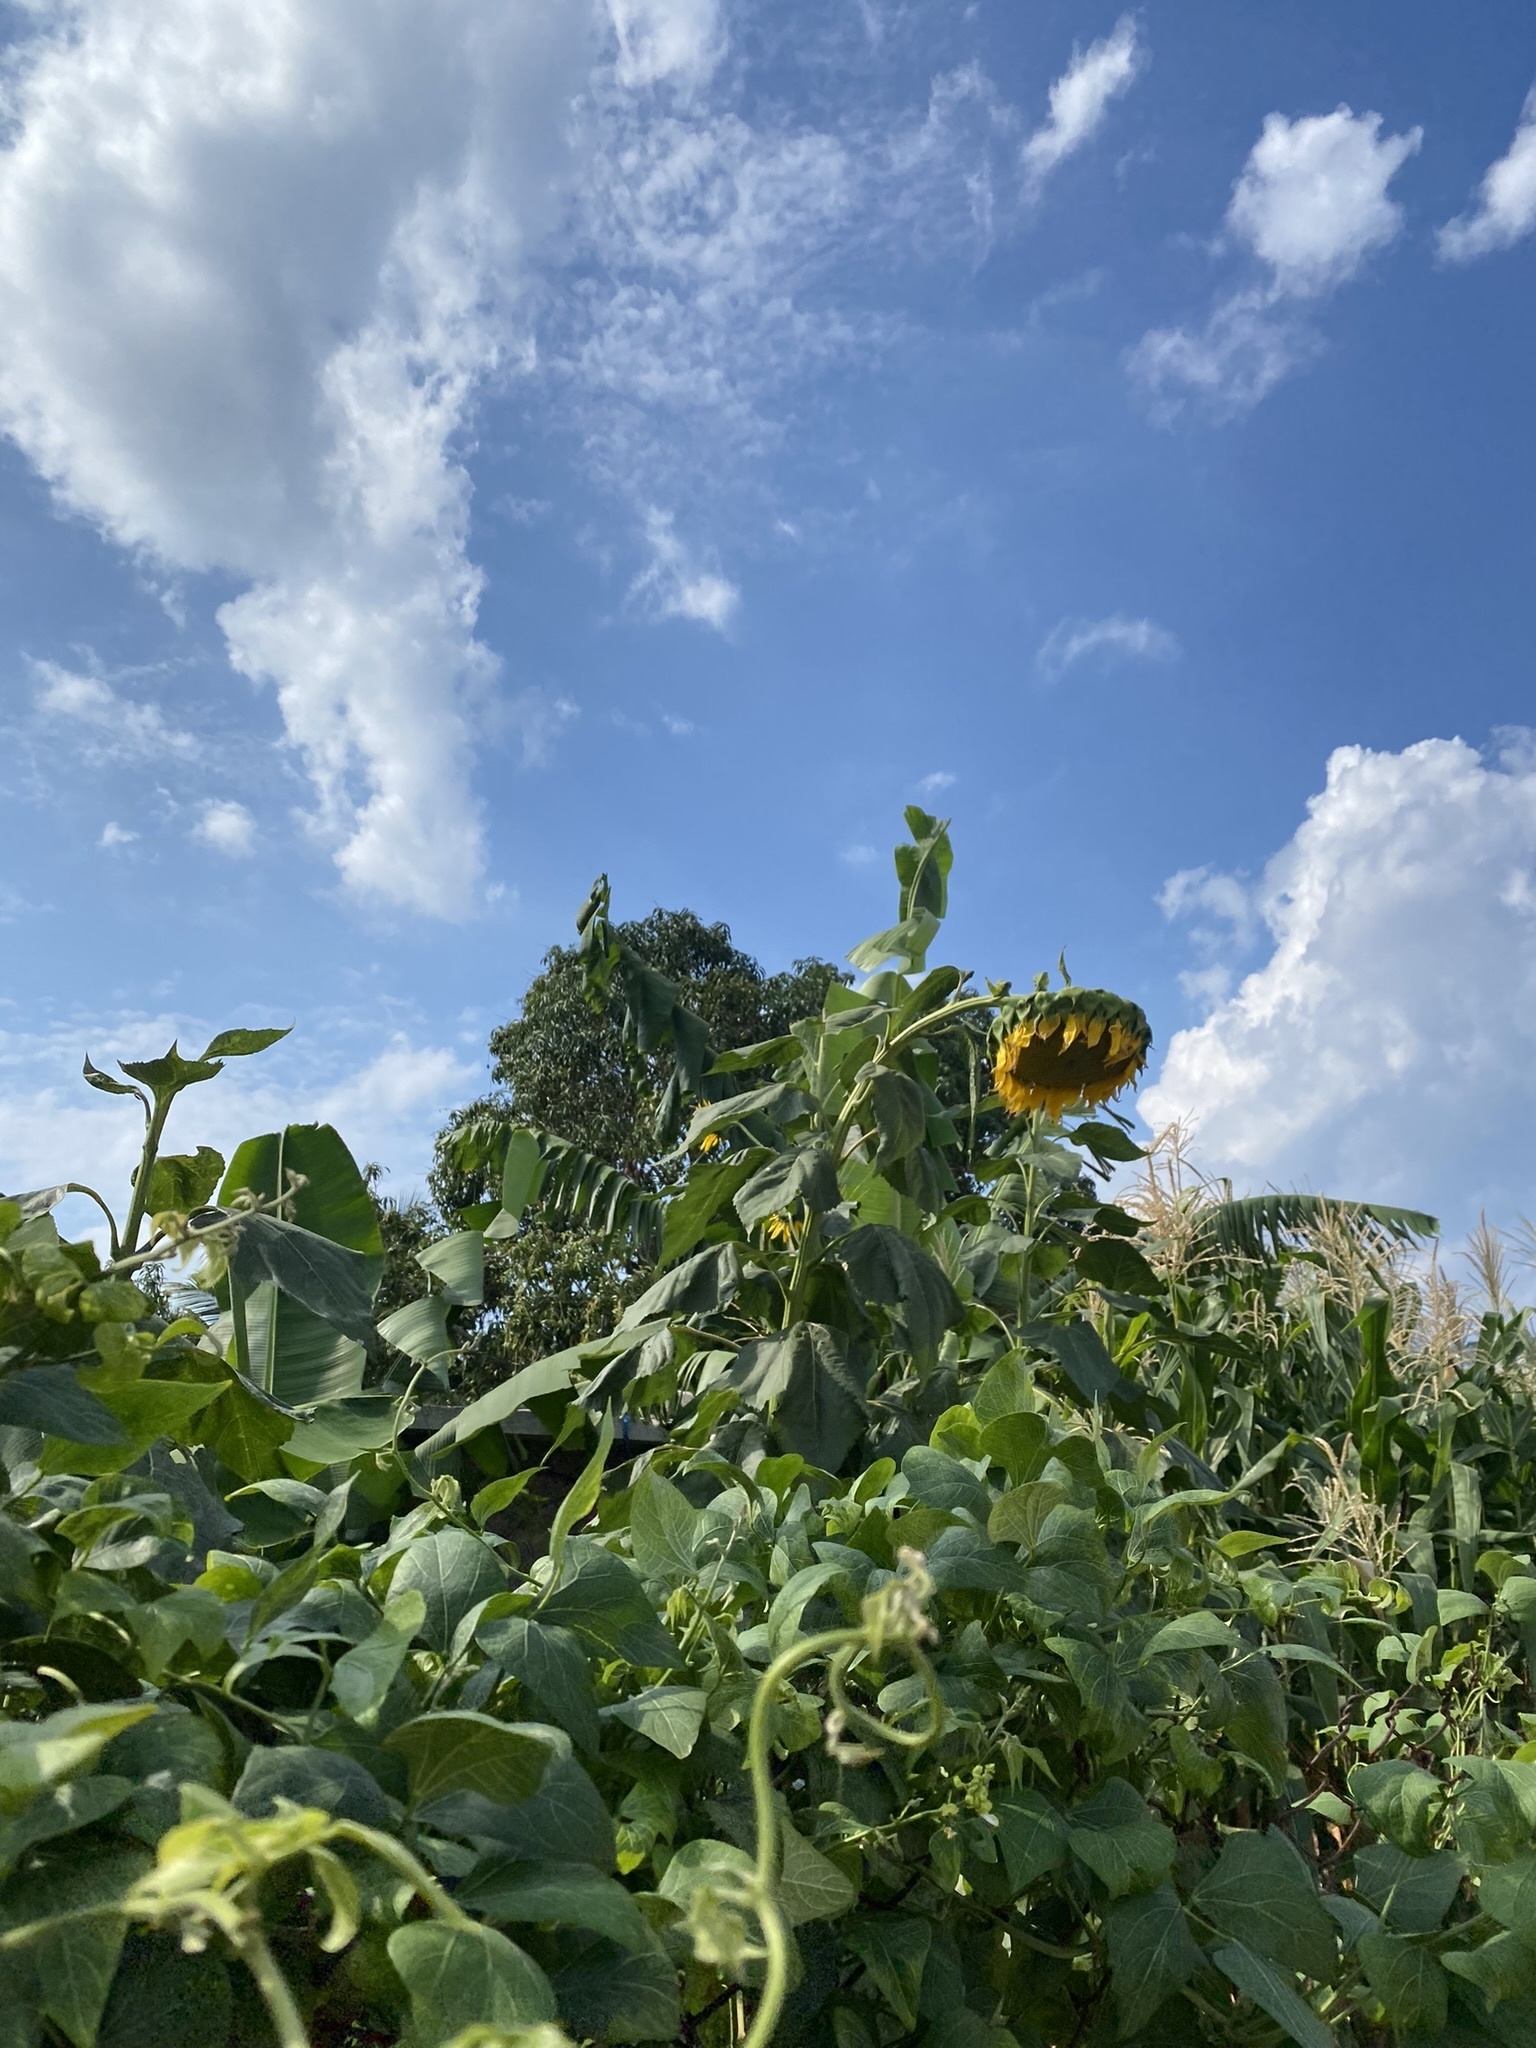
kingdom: Plantae
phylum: Tracheophyta
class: Magnoliopsida
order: Asterales
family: Asteraceae
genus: Helianthus
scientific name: Helianthus annuus
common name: Sunflower
